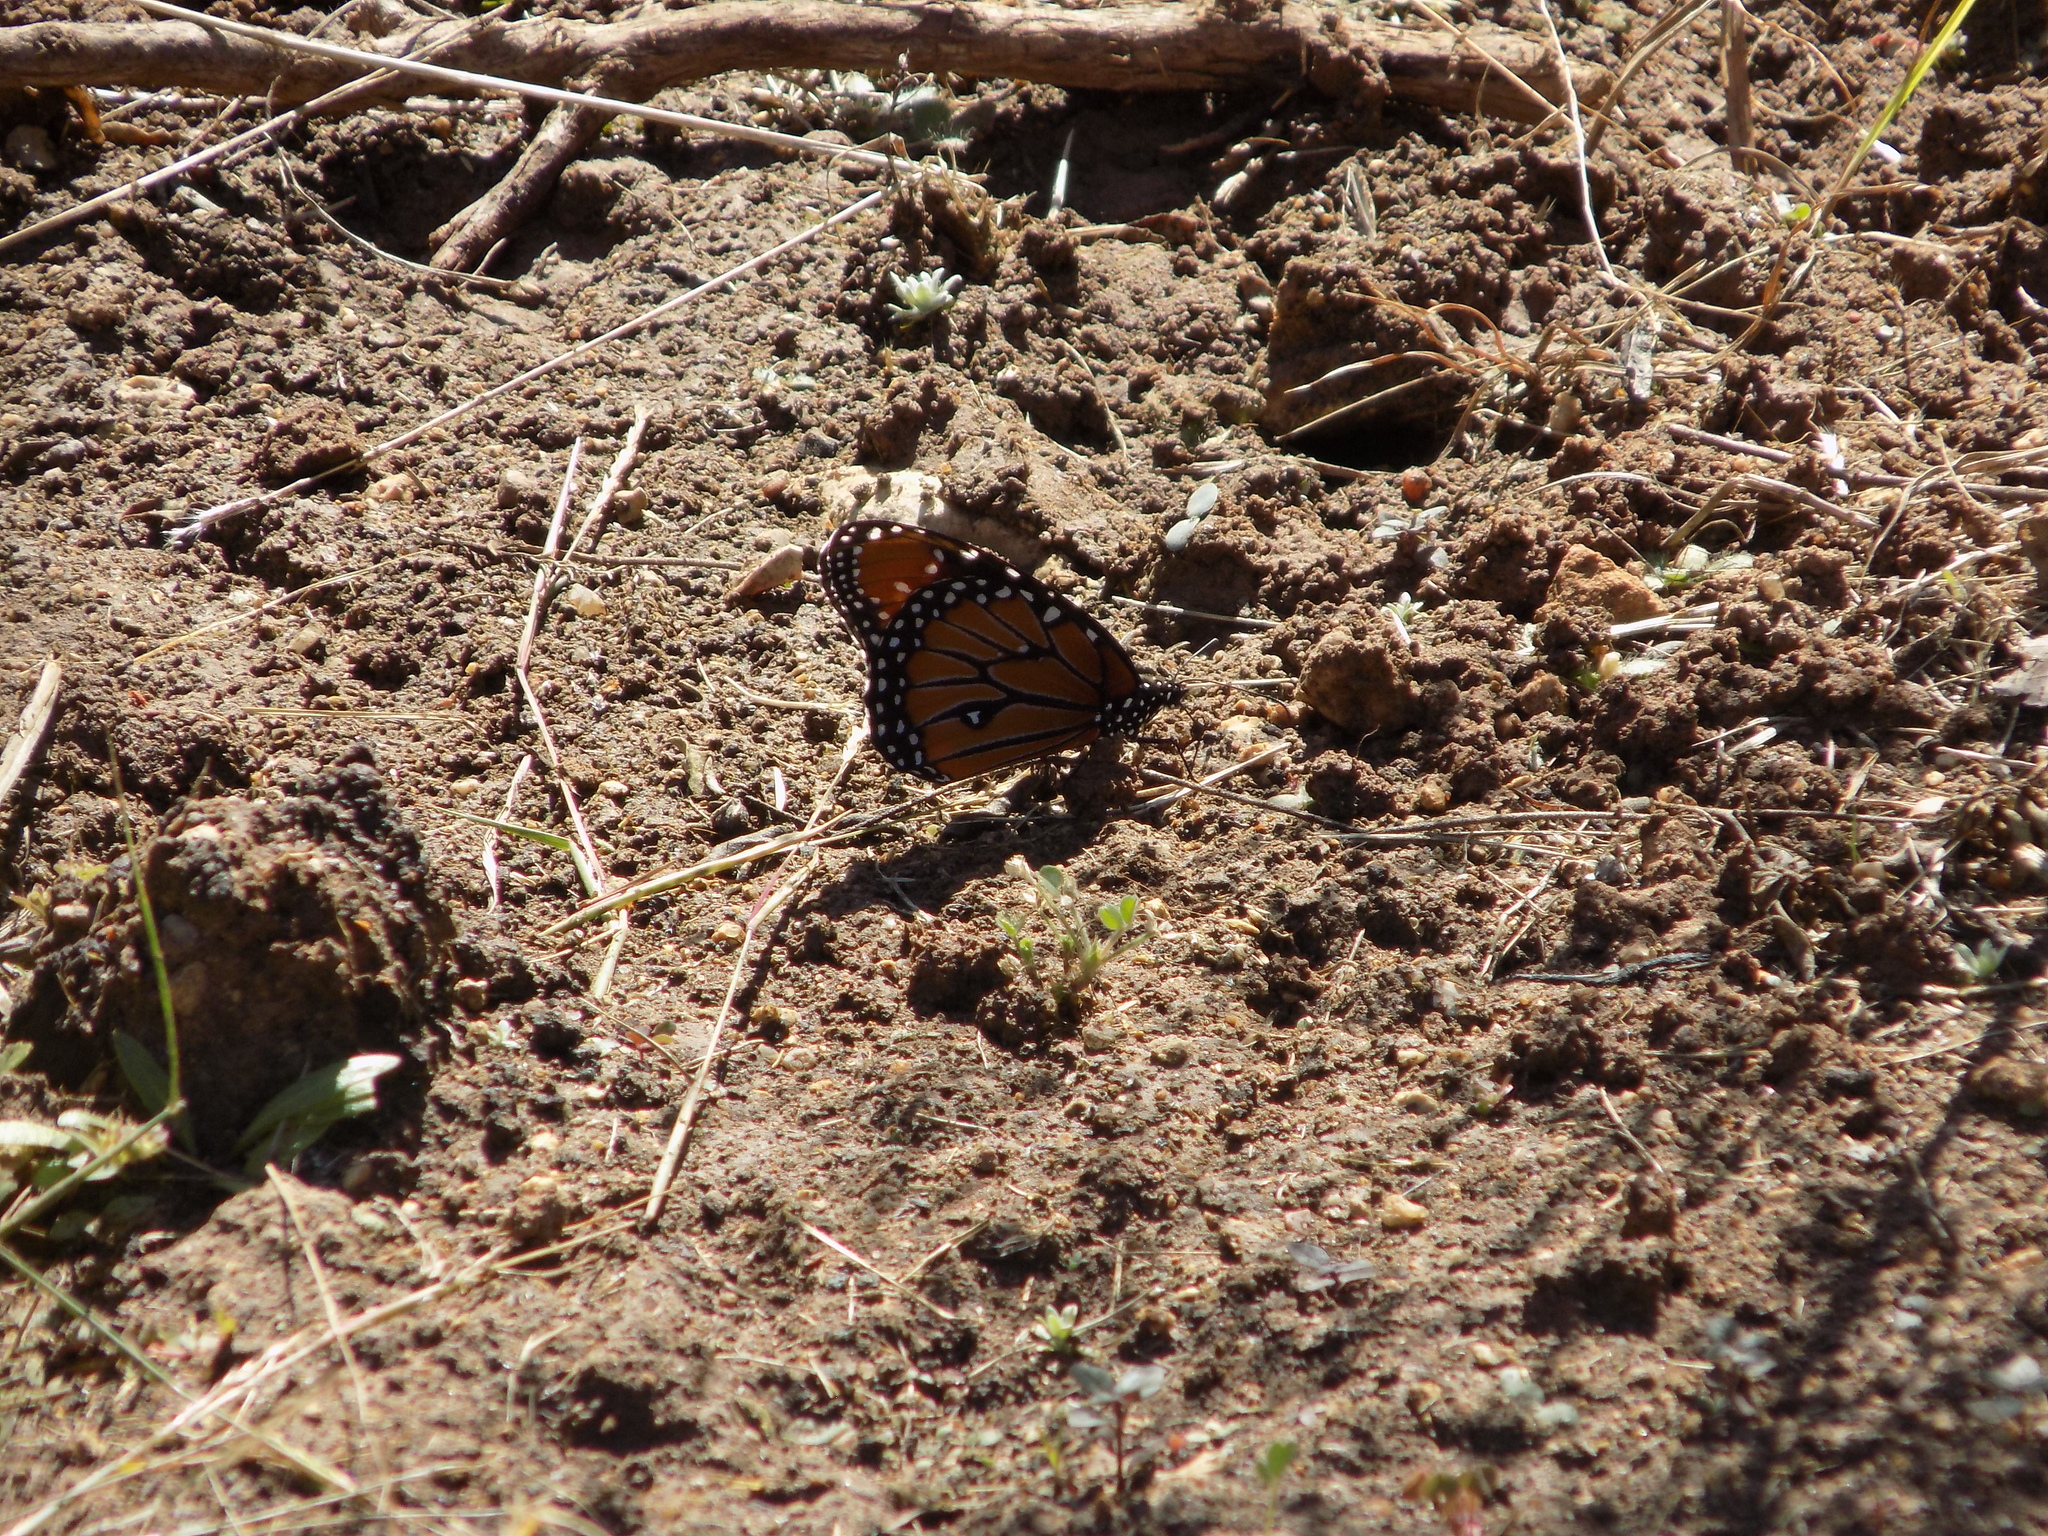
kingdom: Animalia
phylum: Arthropoda
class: Insecta
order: Lepidoptera
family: Nymphalidae
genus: Danaus
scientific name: Danaus gilippus
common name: Queen
